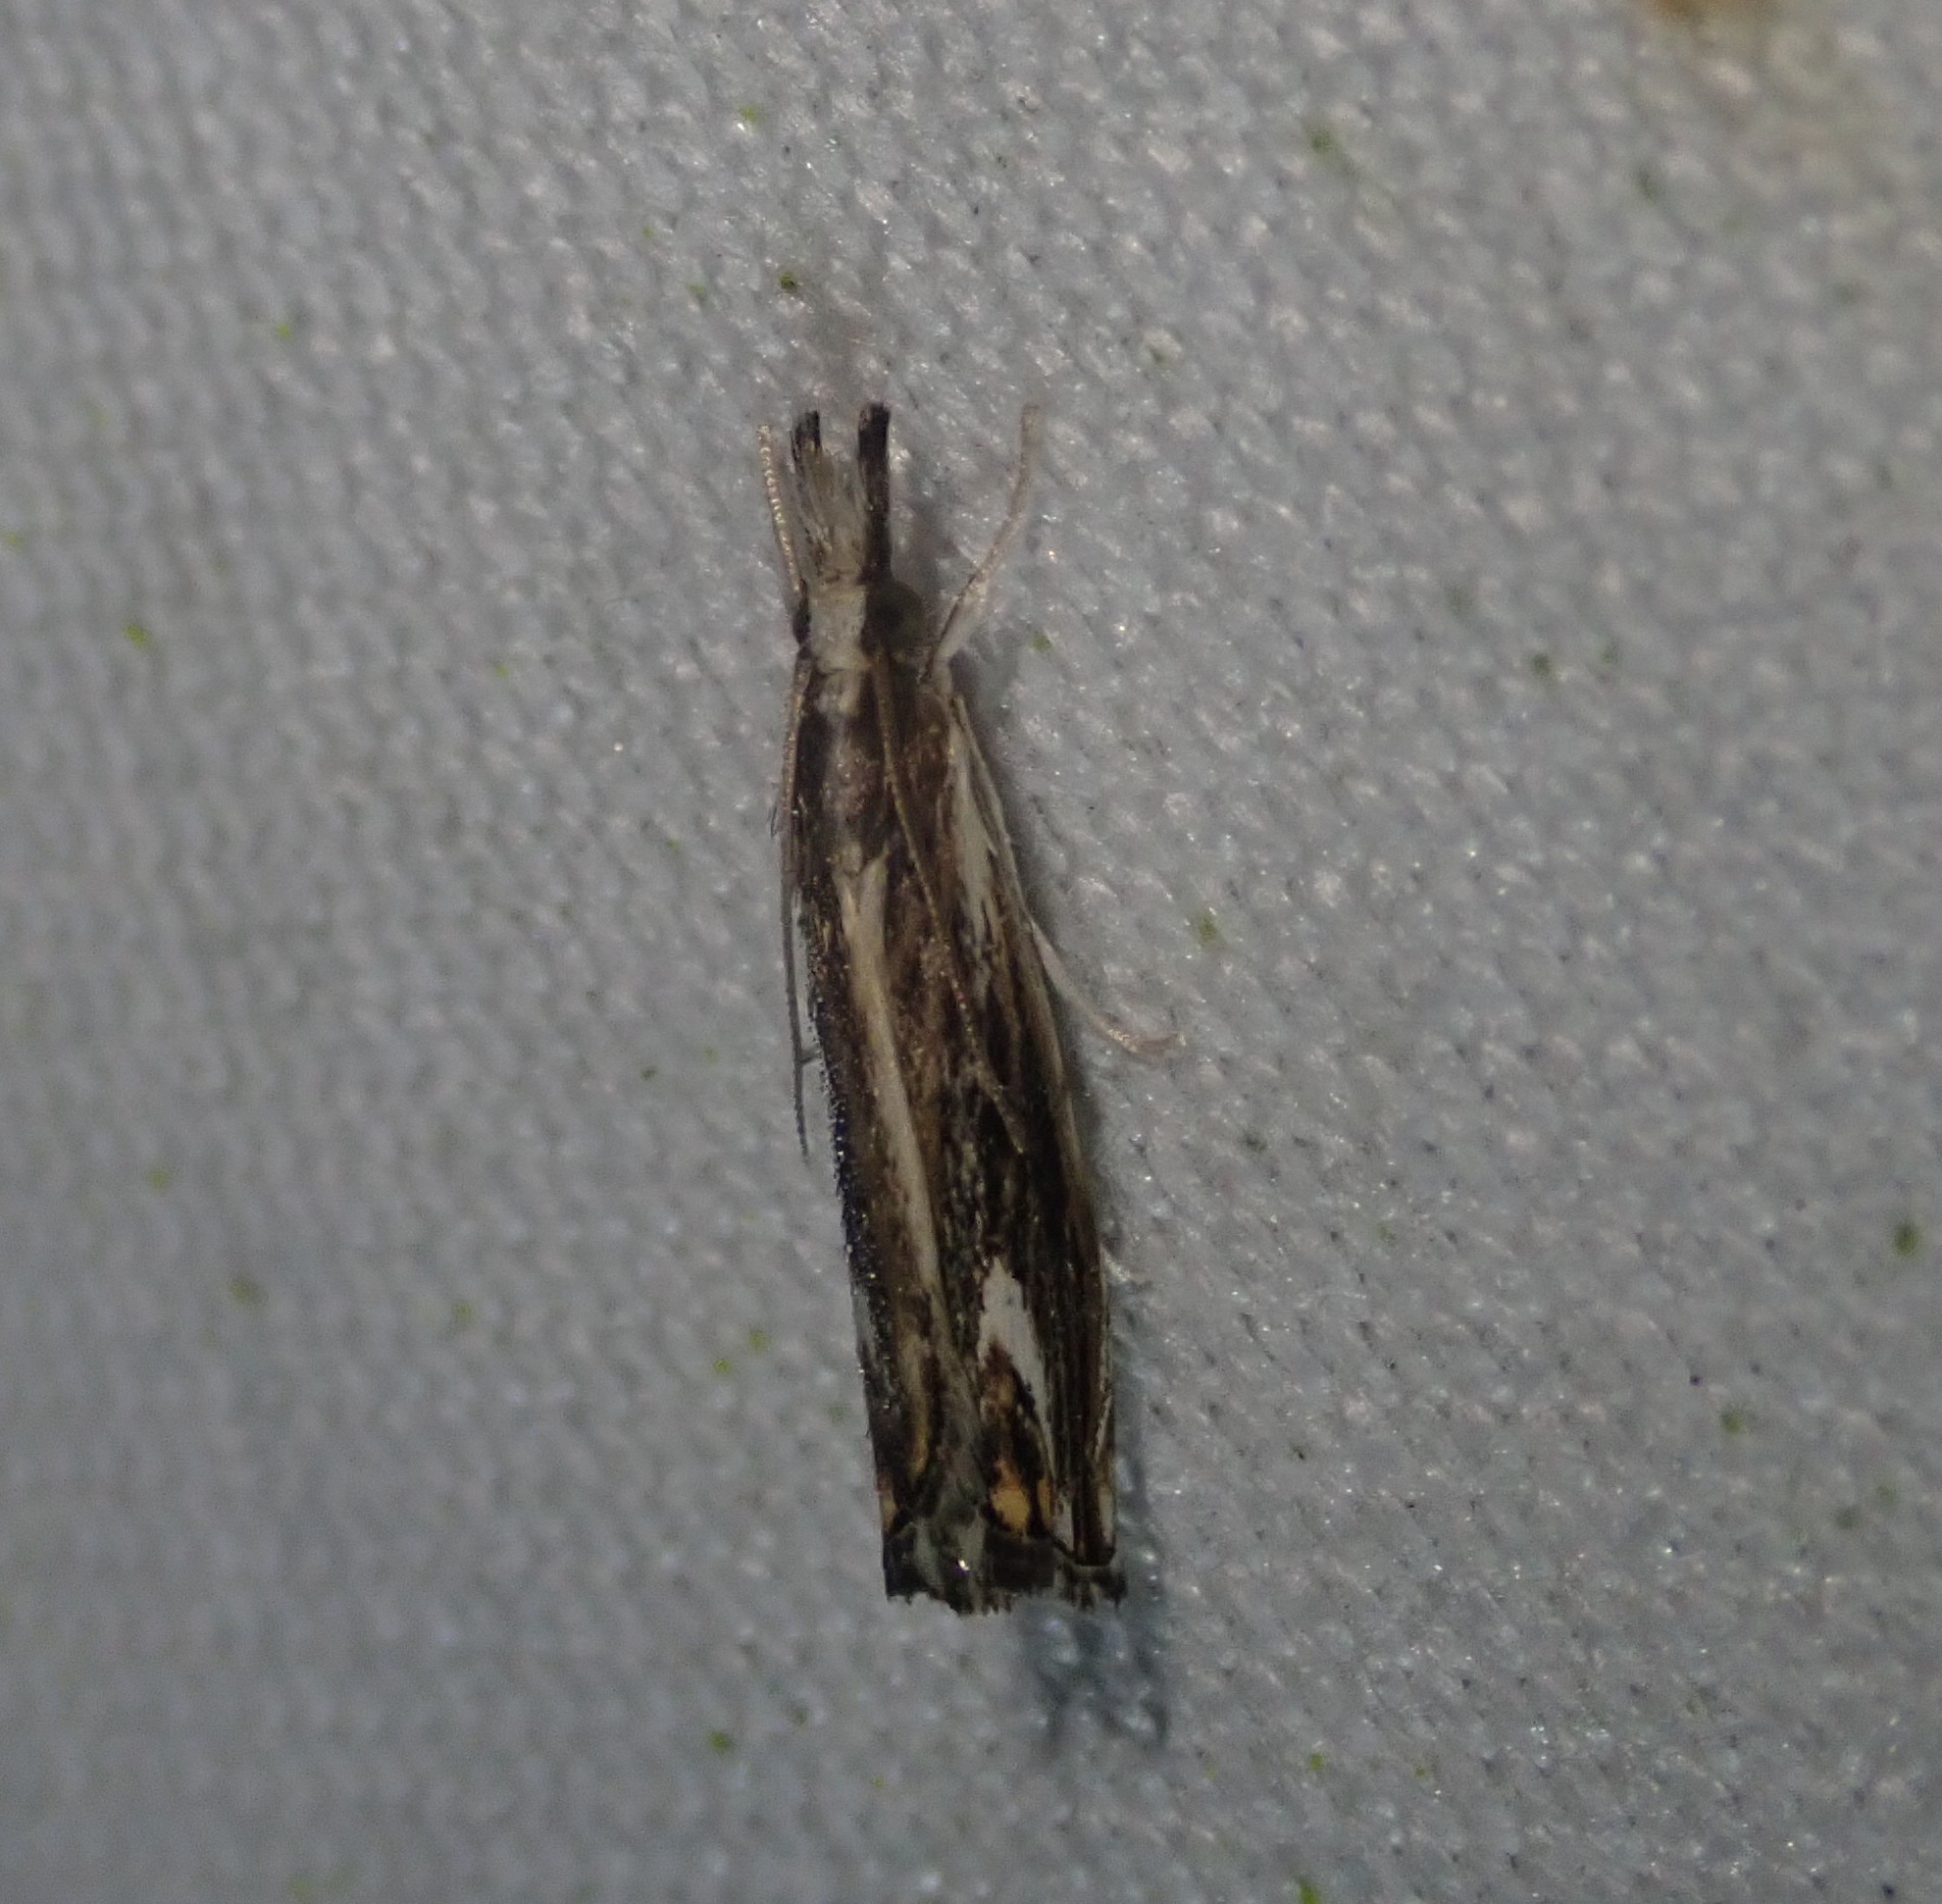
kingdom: Animalia
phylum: Arthropoda
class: Insecta
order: Lepidoptera
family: Crambidae
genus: Catoptria
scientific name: Catoptria verellus
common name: Marbled grass-veneer
